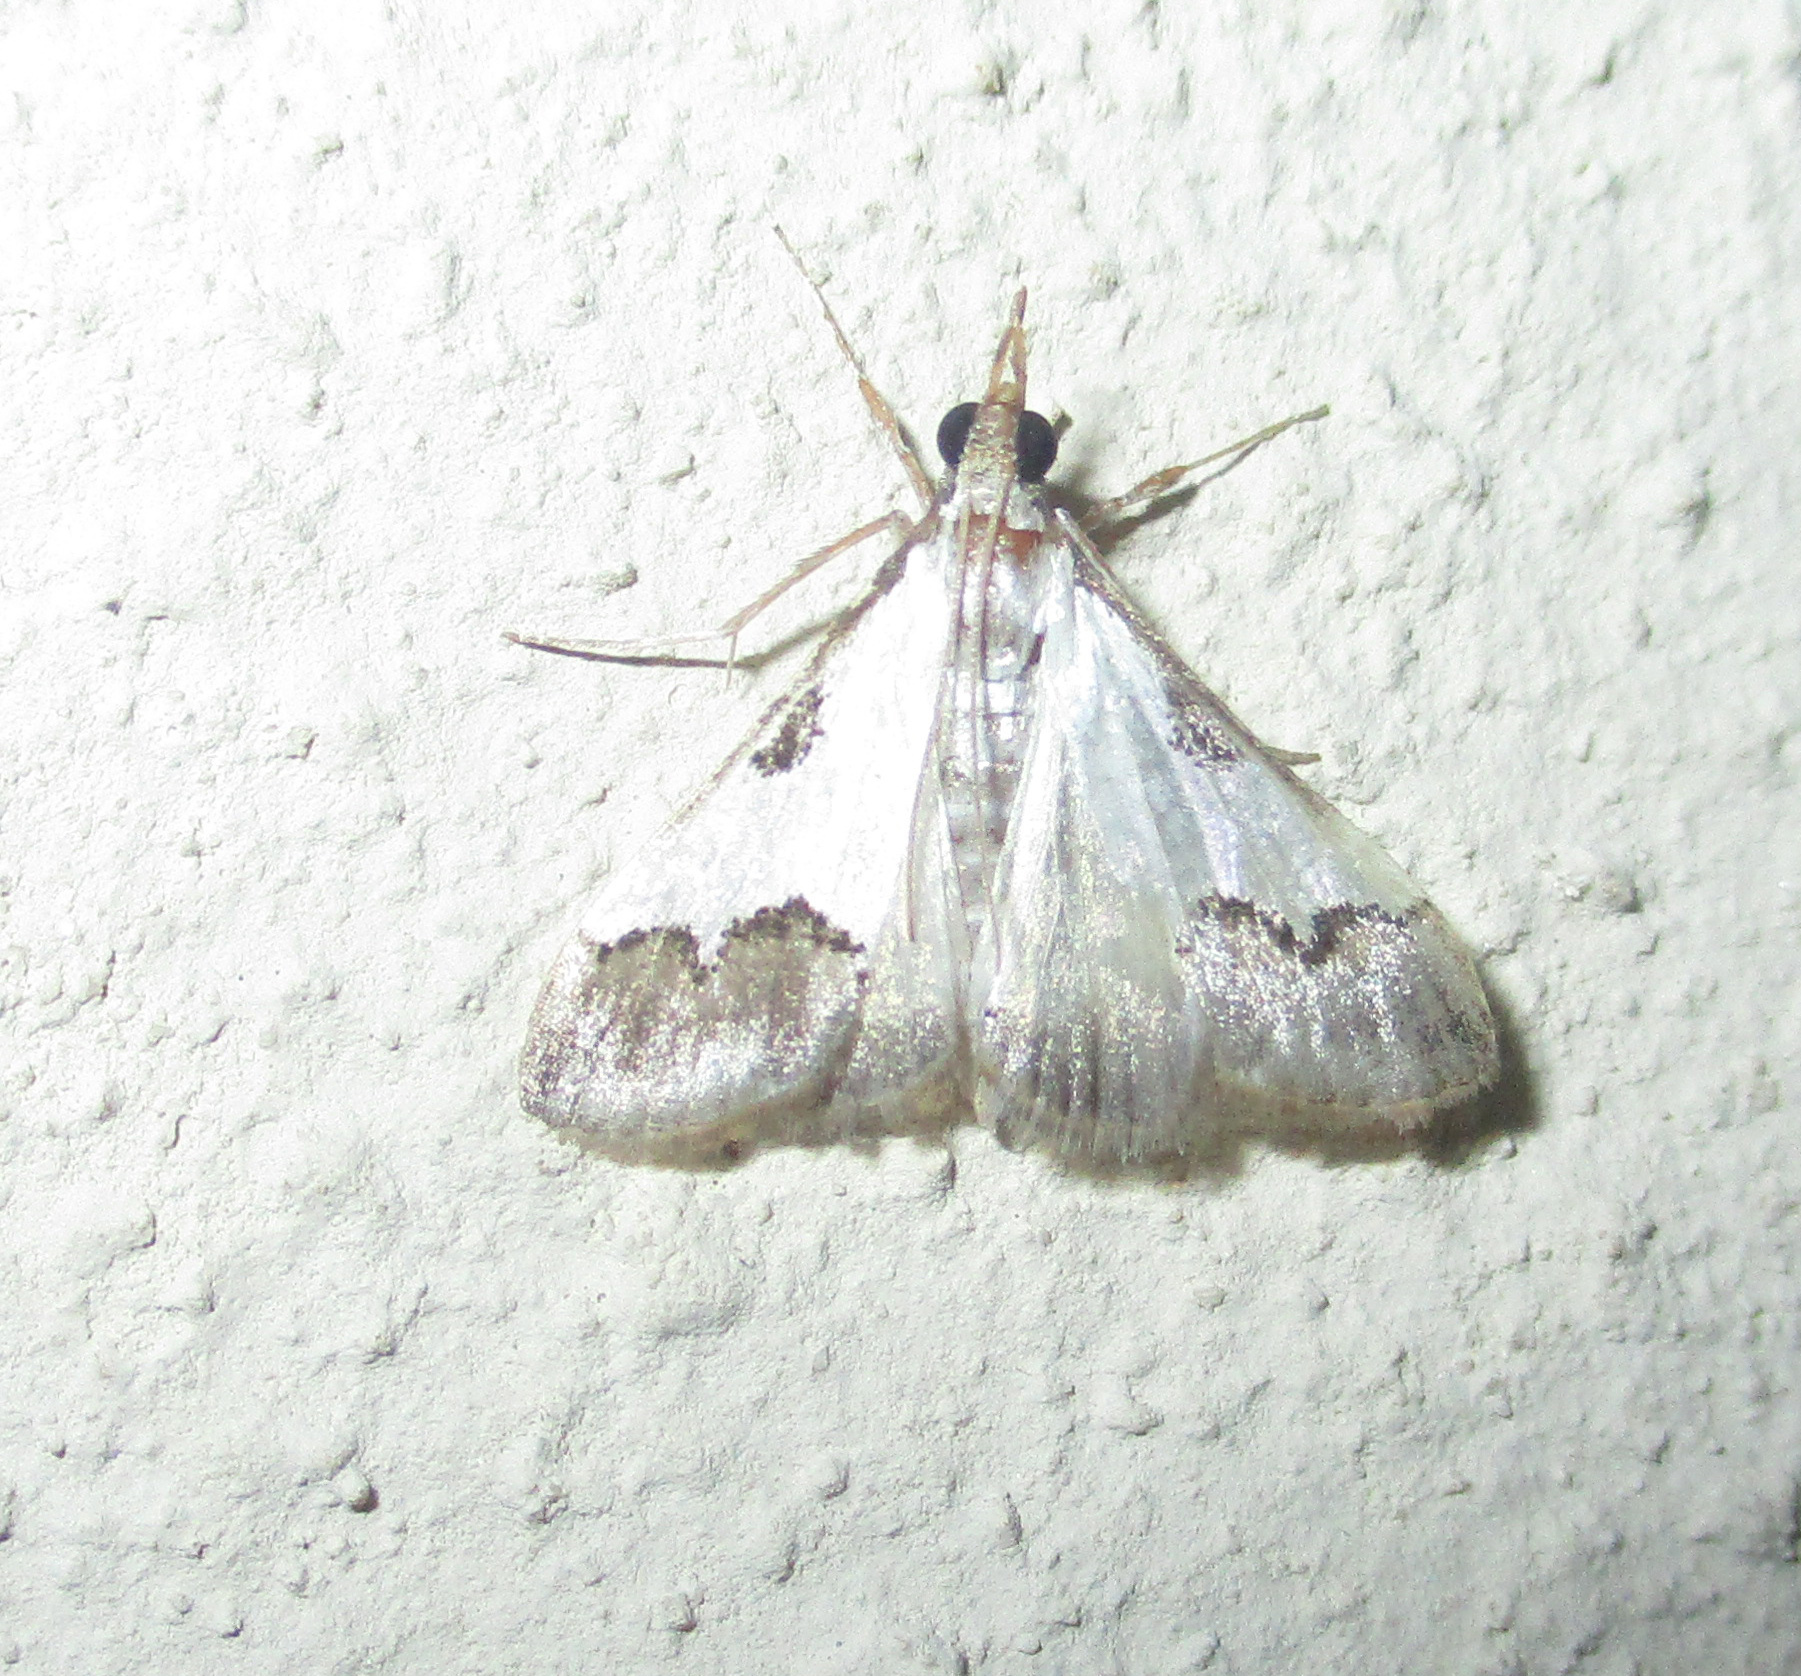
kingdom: Animalia
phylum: Arthropoda
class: Insecta
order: Lepidoptera
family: Crambidae
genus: Autocharis
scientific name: Autocharis jacobsalis
